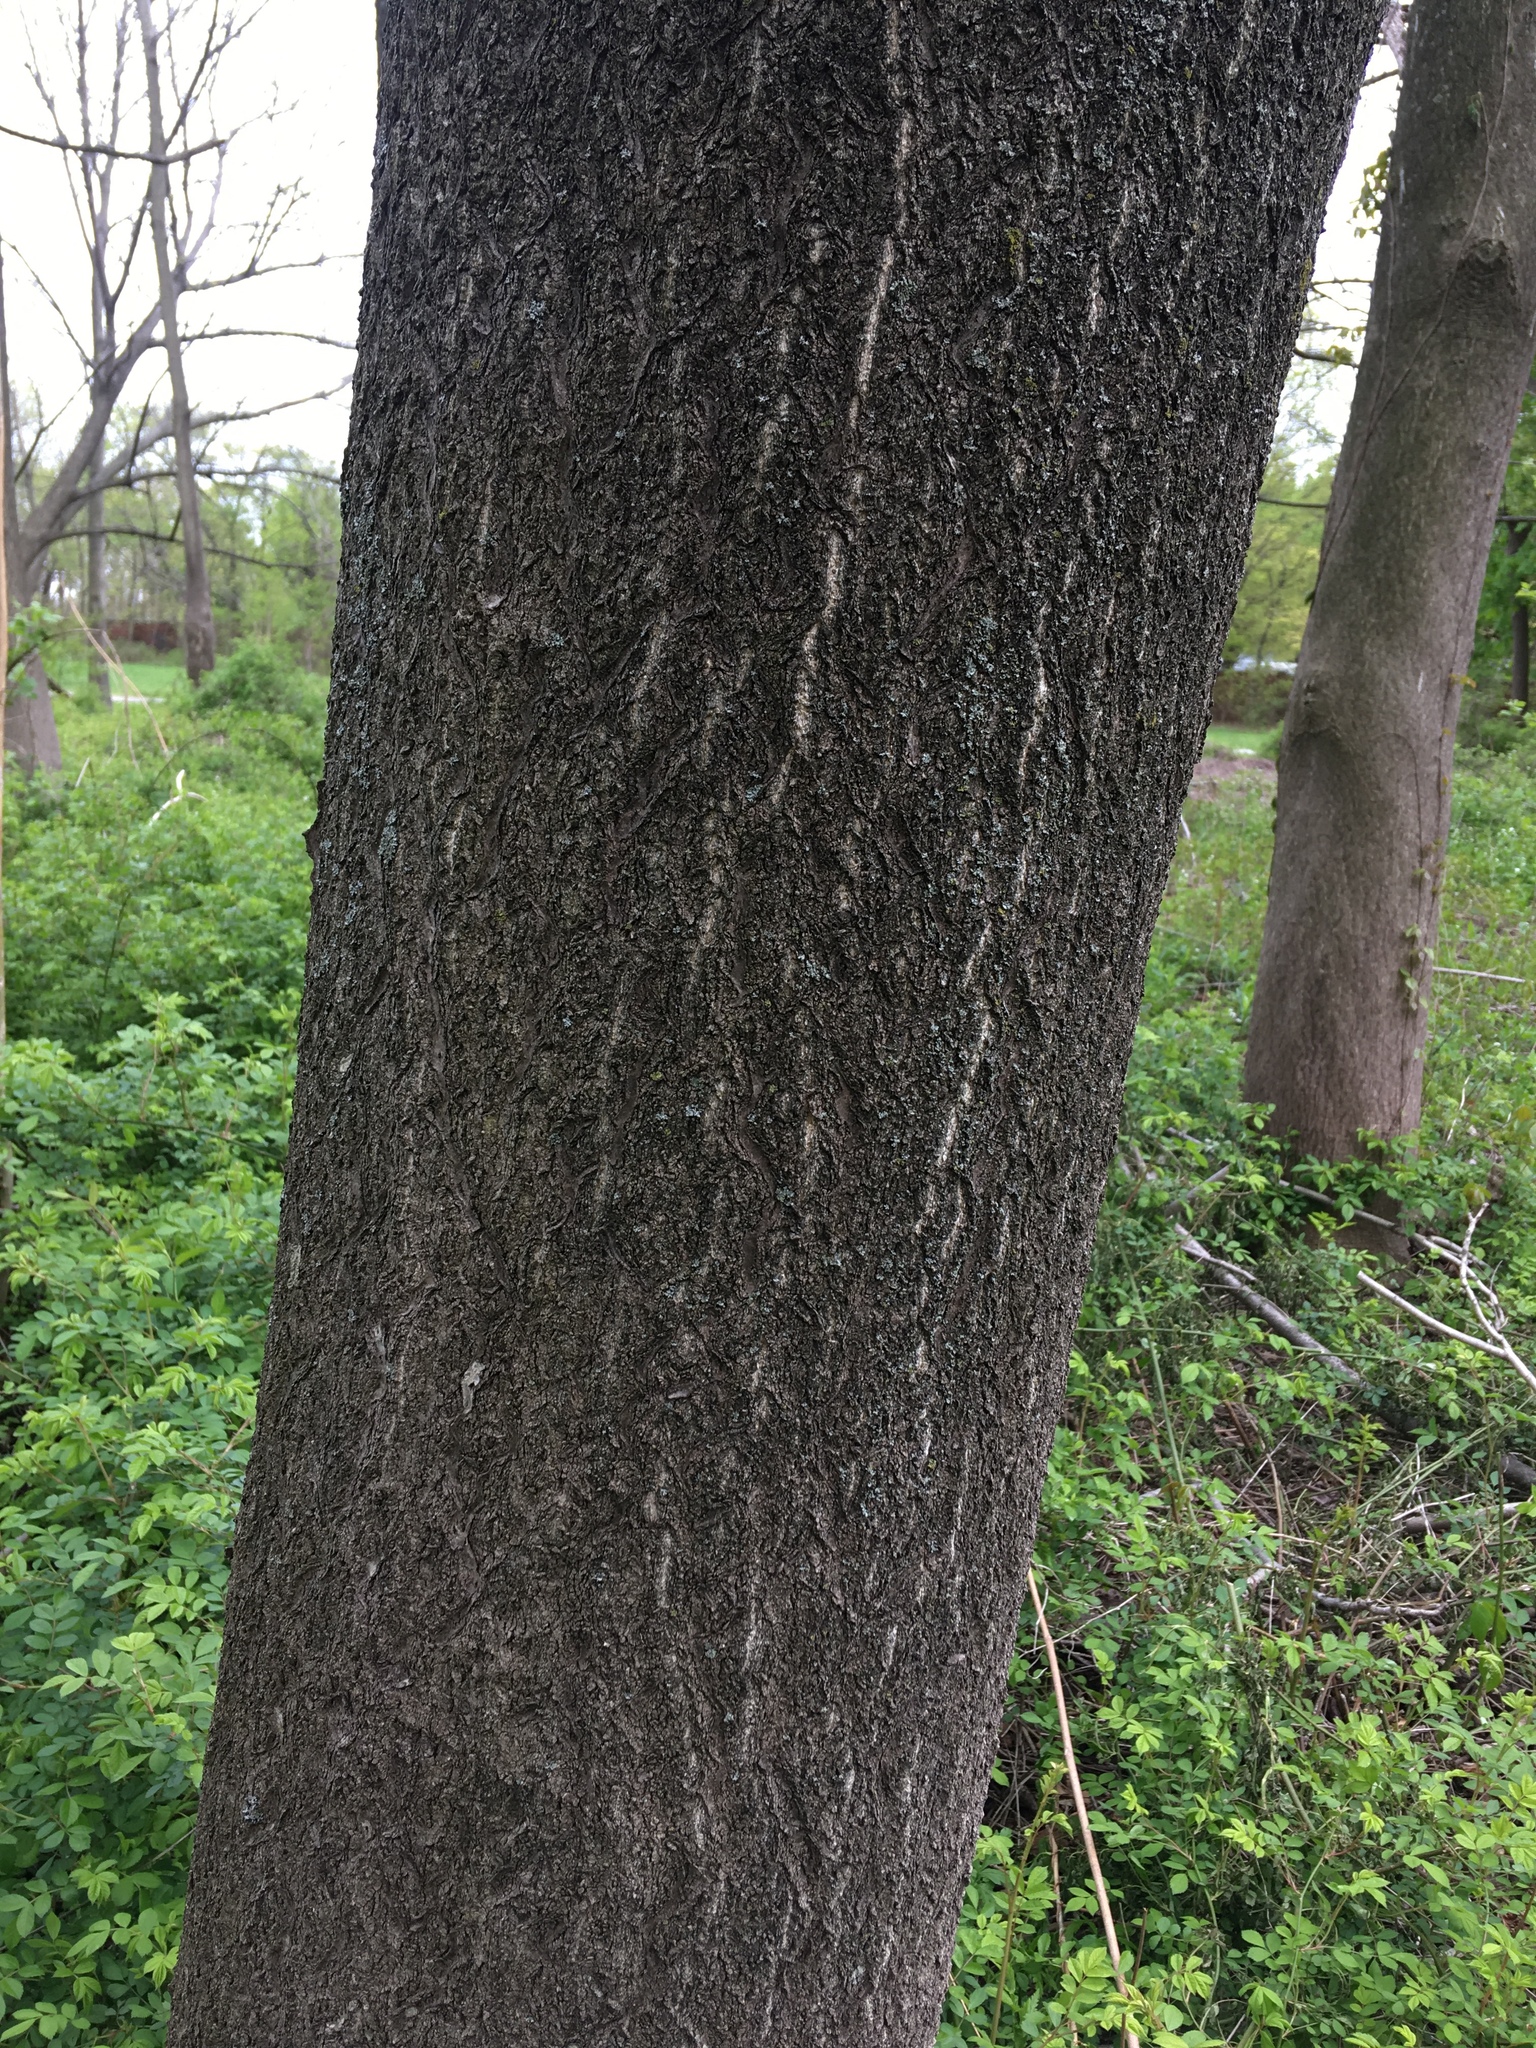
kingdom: Plantae
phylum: Tracheophyta
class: Magnoliopsida
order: Sapindales
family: Simaroubaceae
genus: Ailanthus
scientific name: Ailanthus altissima
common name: Tree-of-heaven
